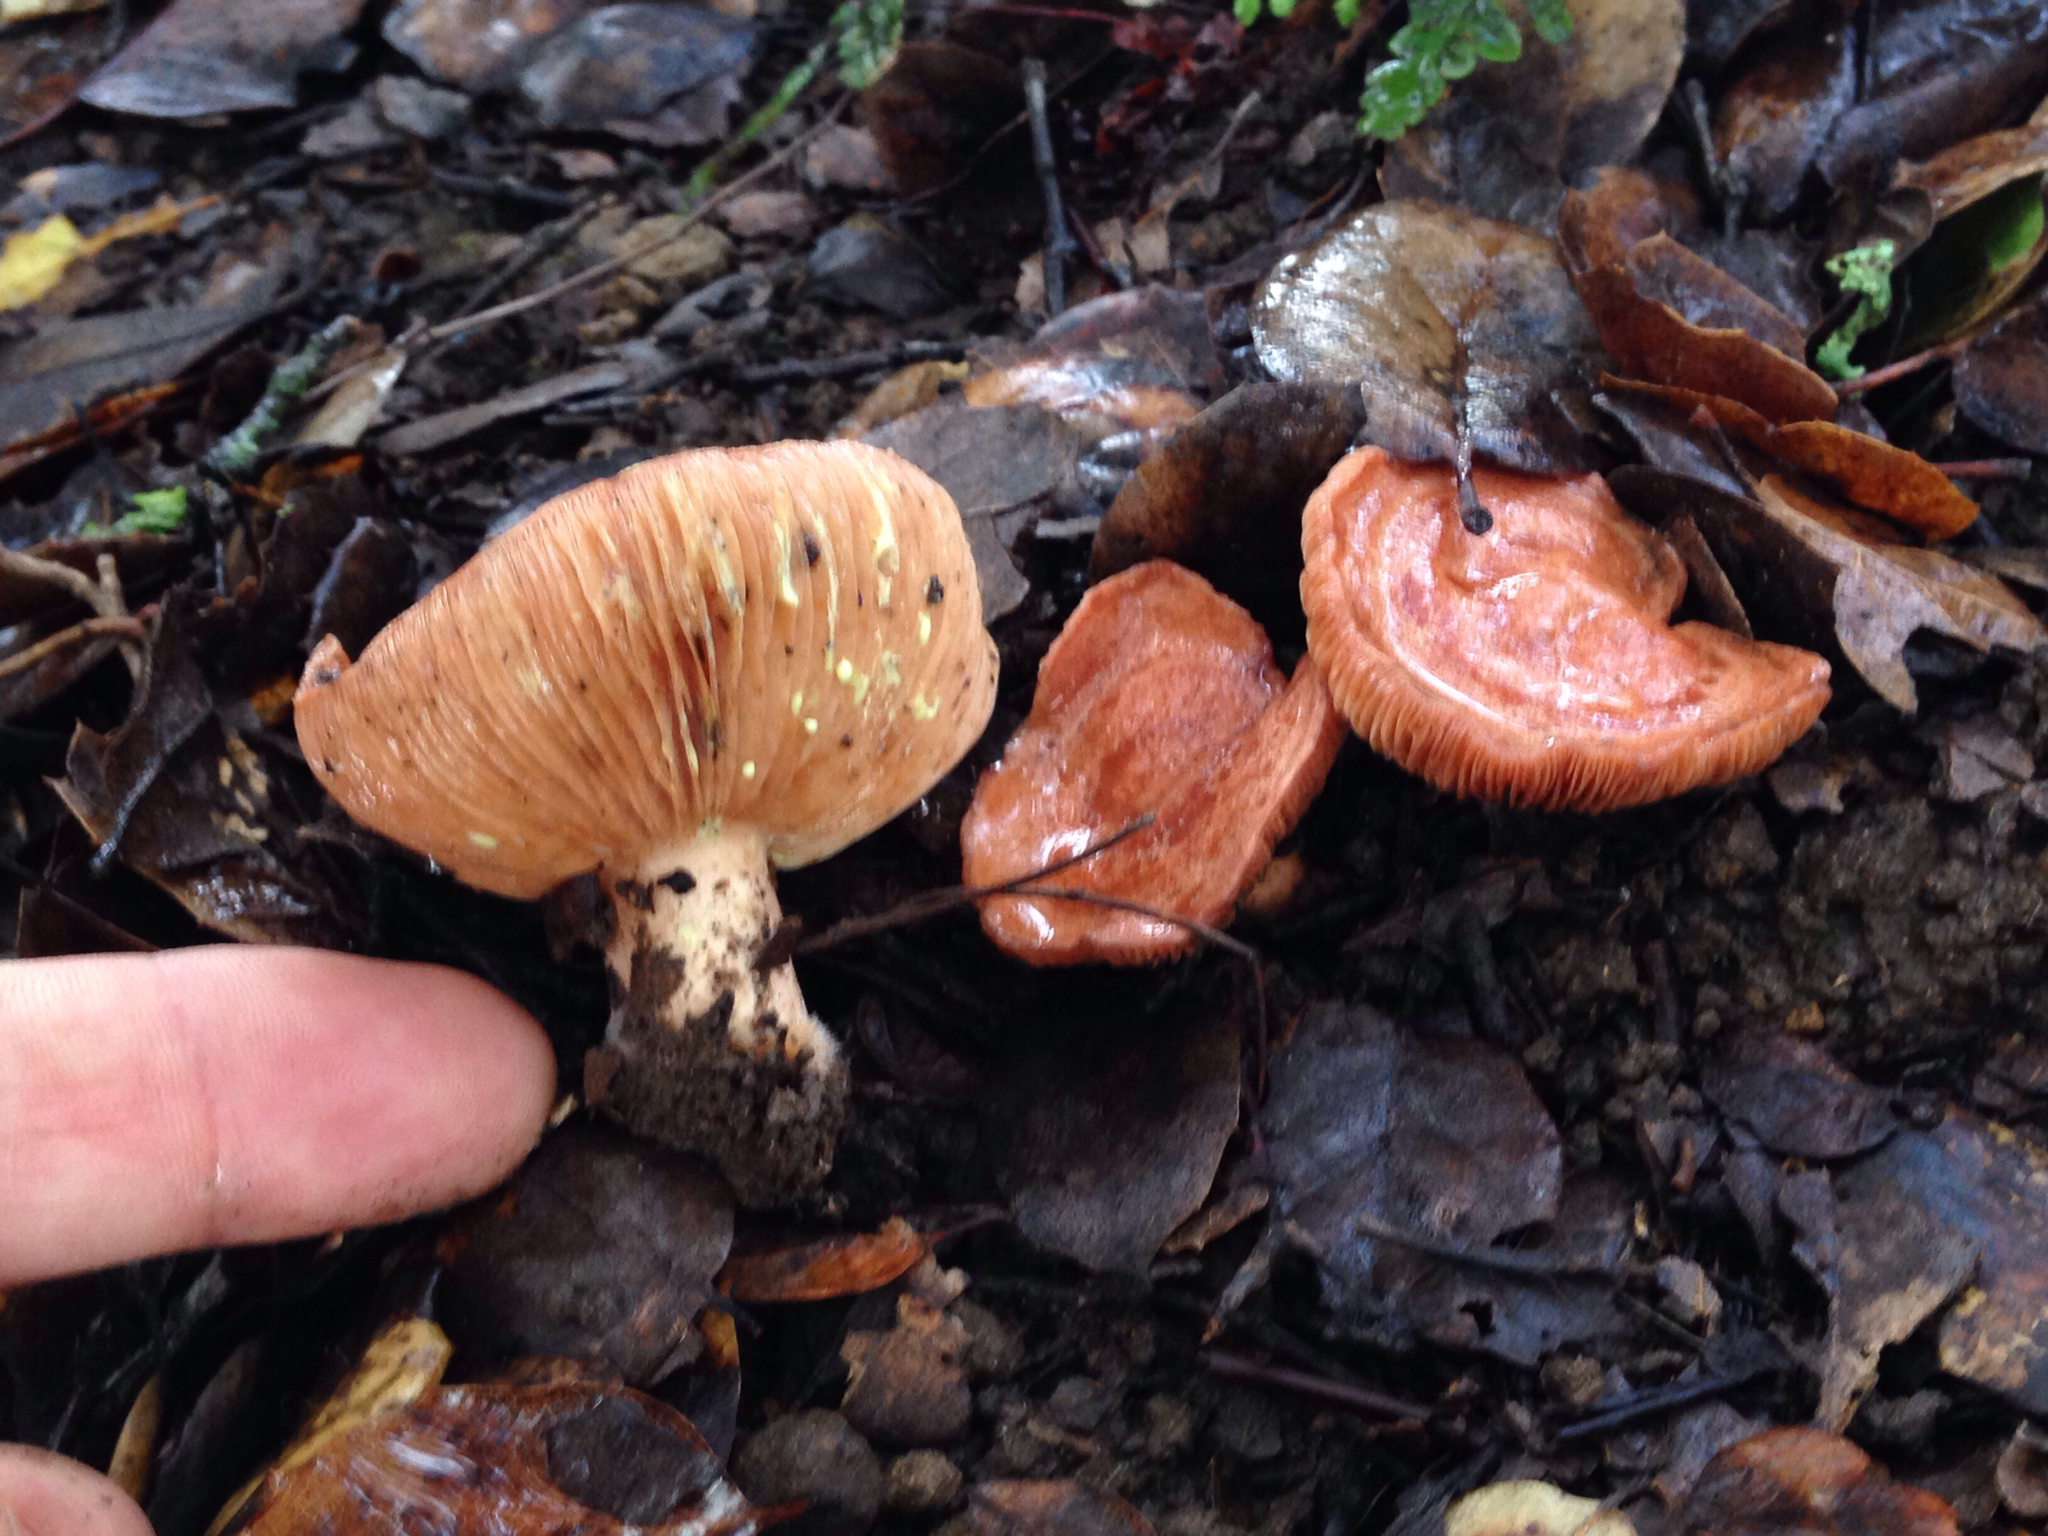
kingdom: Fungi
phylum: Basidiomycota
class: Agaricomycetes
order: Russulales
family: Russulaceae
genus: Lactarius
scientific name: Lactarius xanthogalactus
